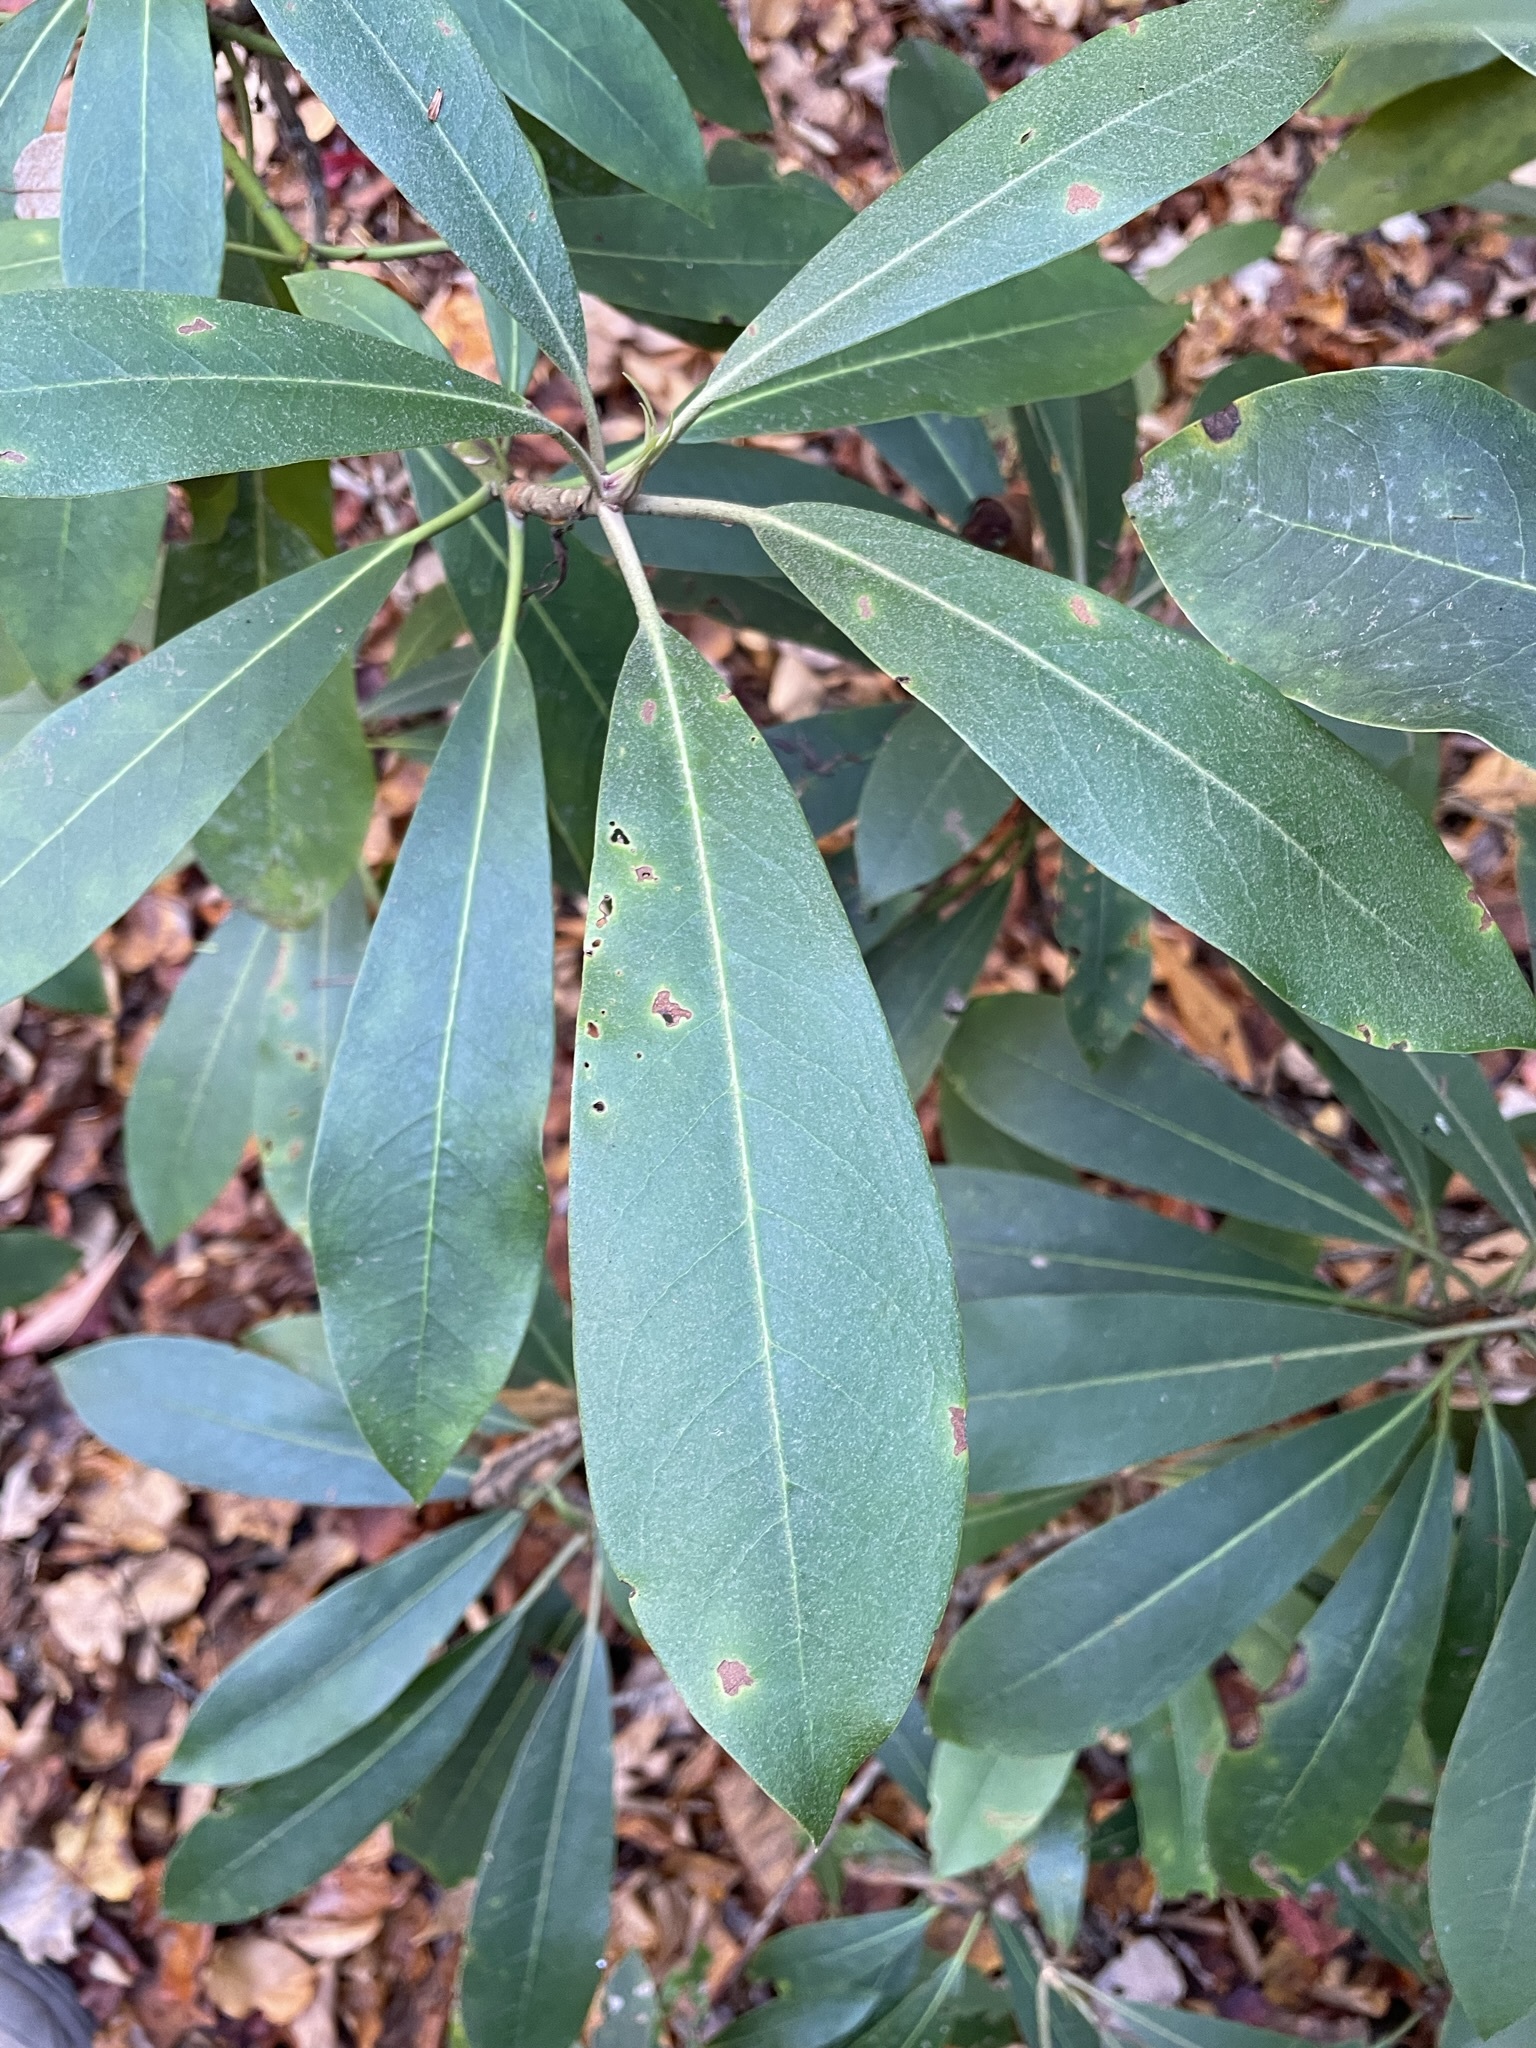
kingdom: Plantae
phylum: Tracheophyta
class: Magnoliopsida
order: Ericales
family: Ericaceae
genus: Rhododendron
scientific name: Rhododendron maximum
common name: Great rhododendron
